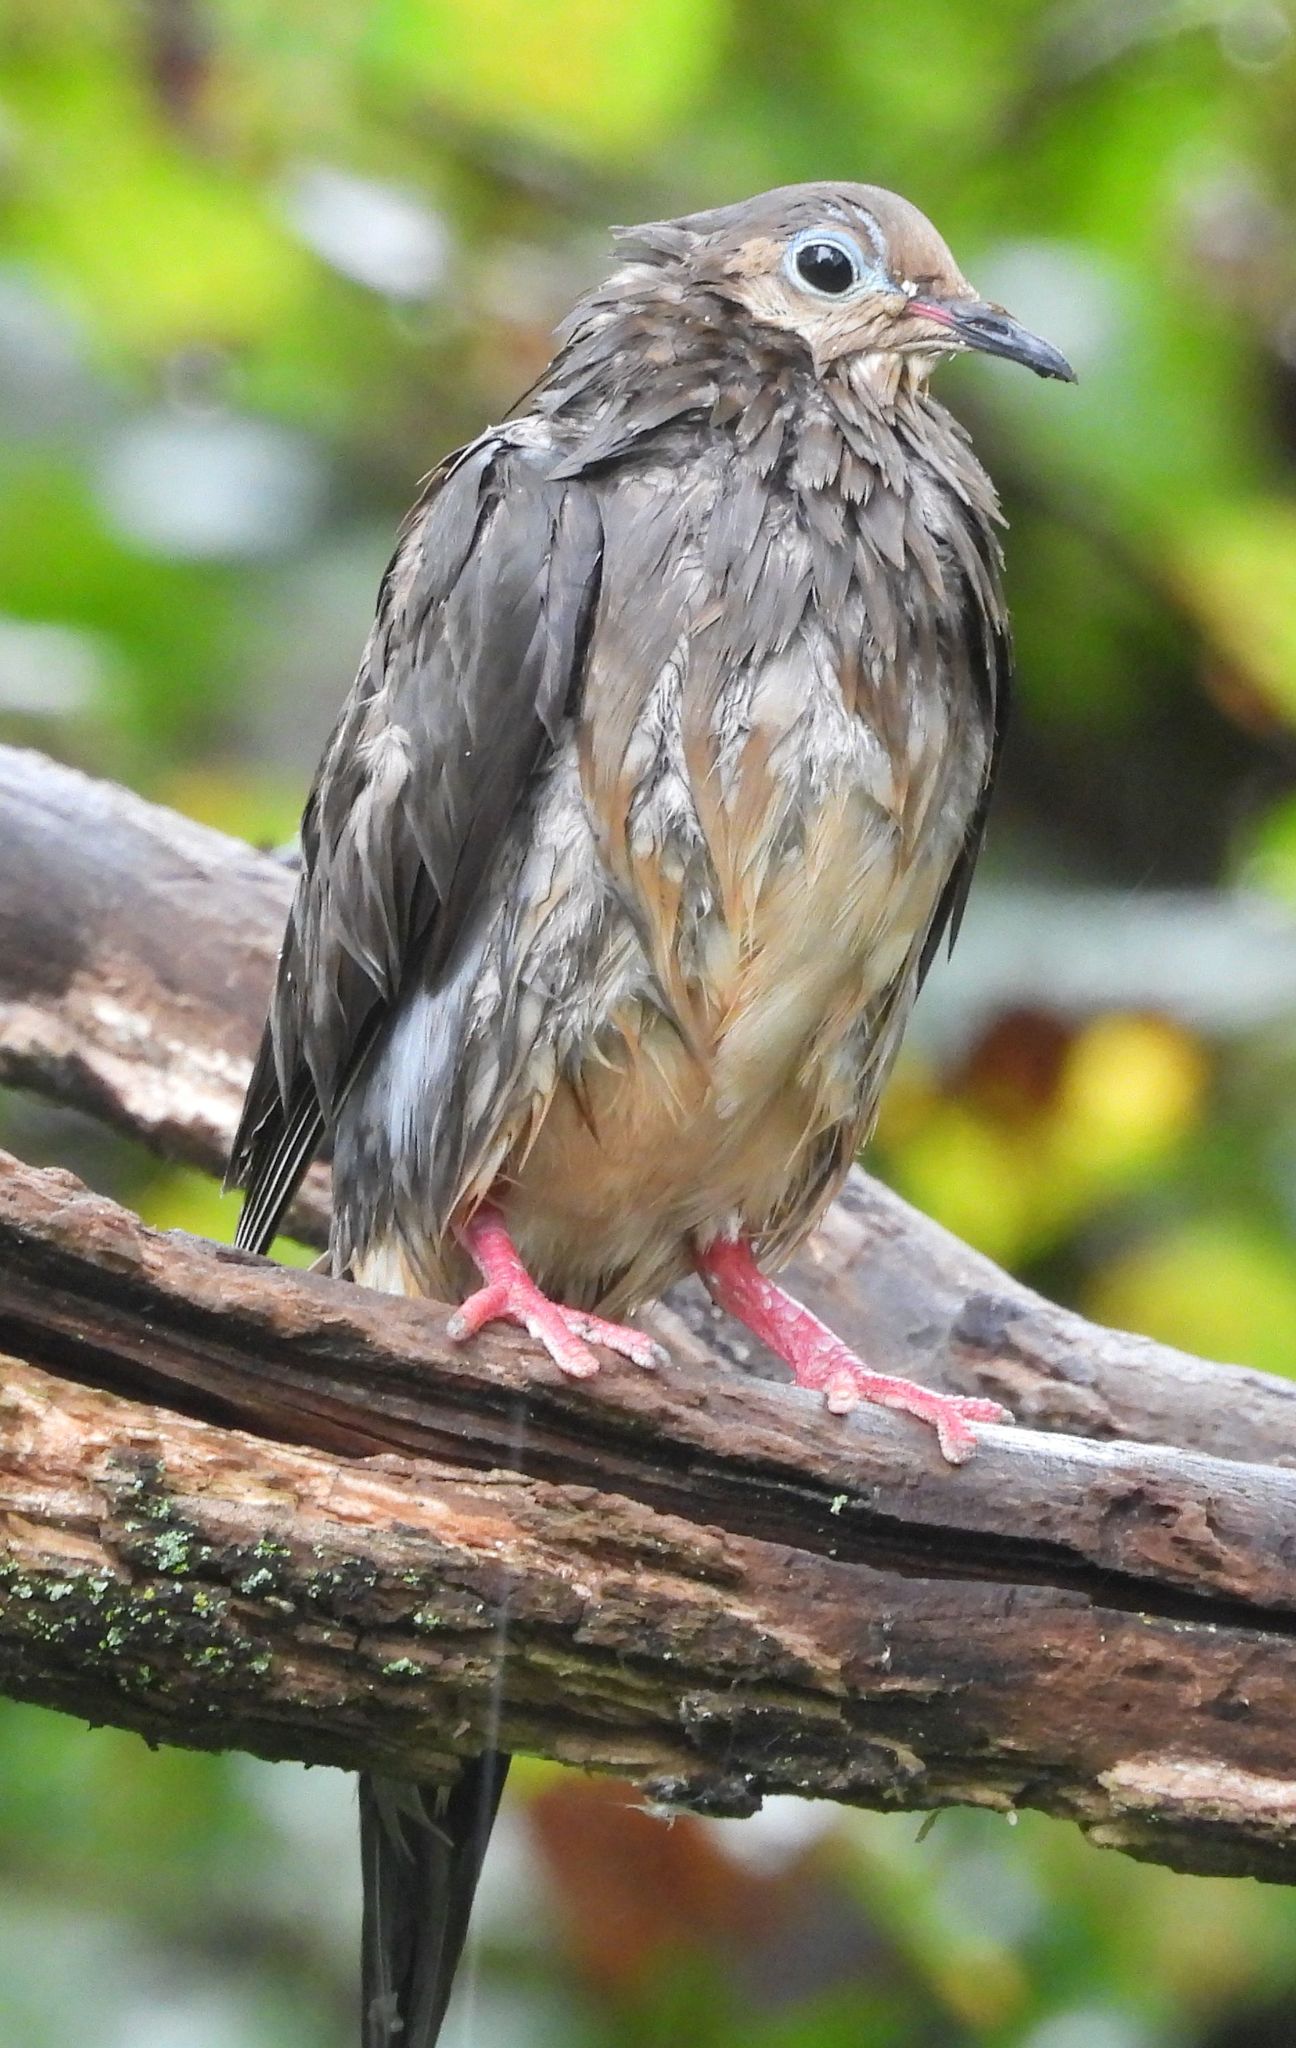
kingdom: Animalia
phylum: Chordata
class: Aves
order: Columbiformes
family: Columbidae
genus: Zenaida
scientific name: Zenaida macroura
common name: Mourning dove
